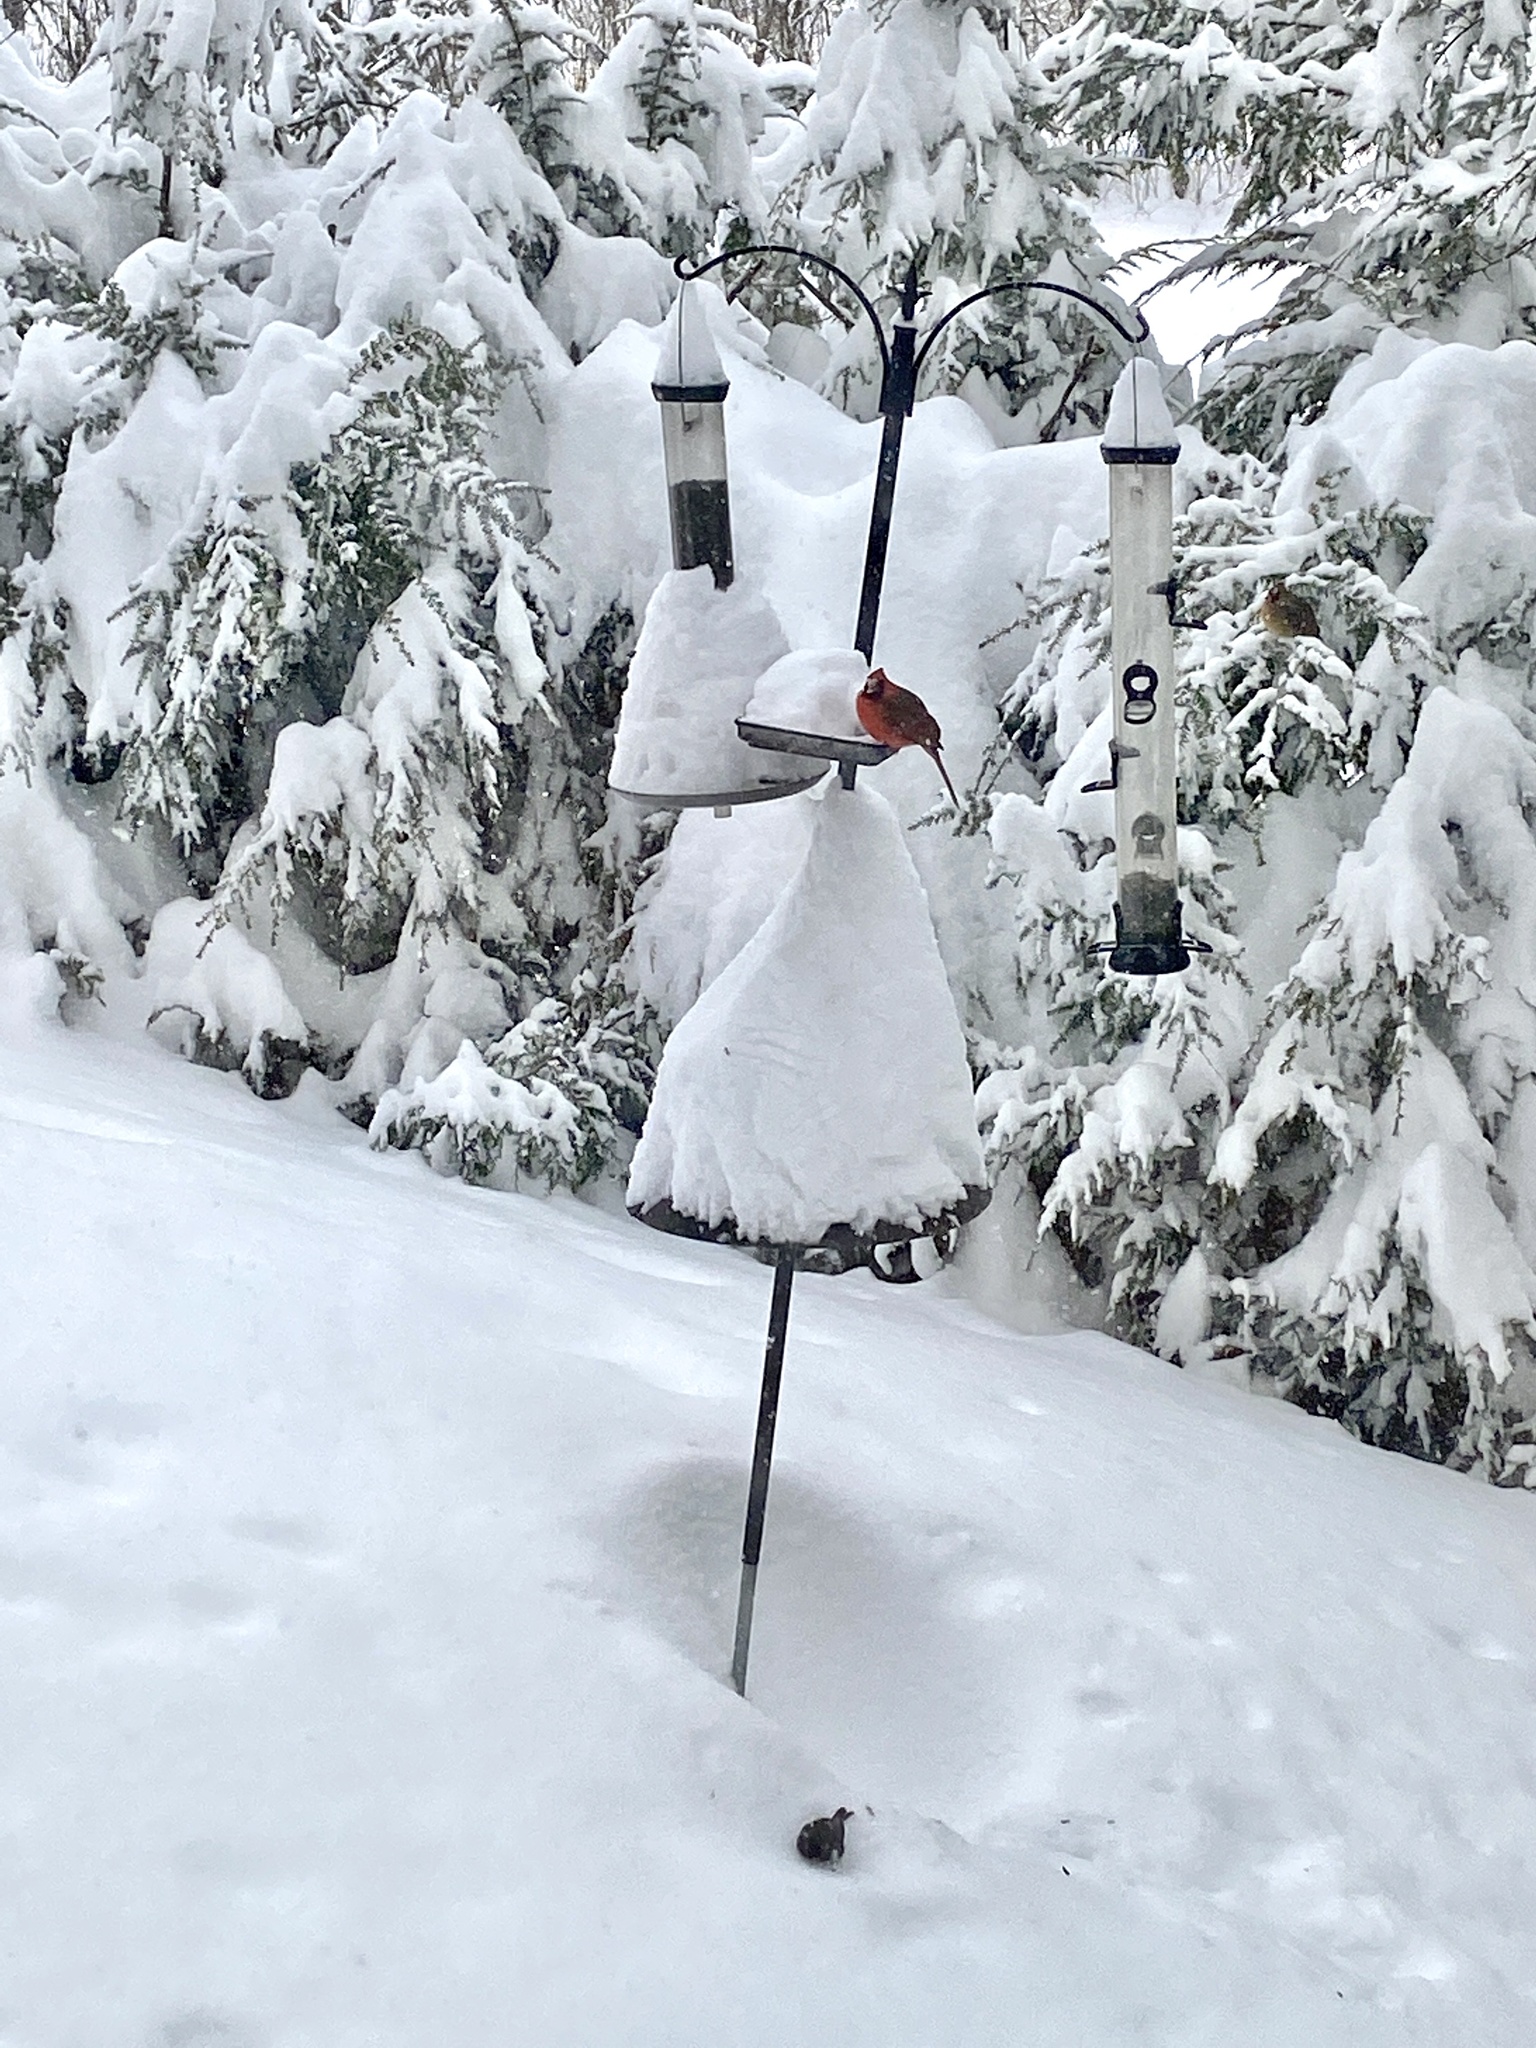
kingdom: Animalia
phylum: Chordata
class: Aves
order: Passeriformes
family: Cardinalidae
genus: Cardinalis
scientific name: Cardinalis cardinalis
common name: Northern cardinal
